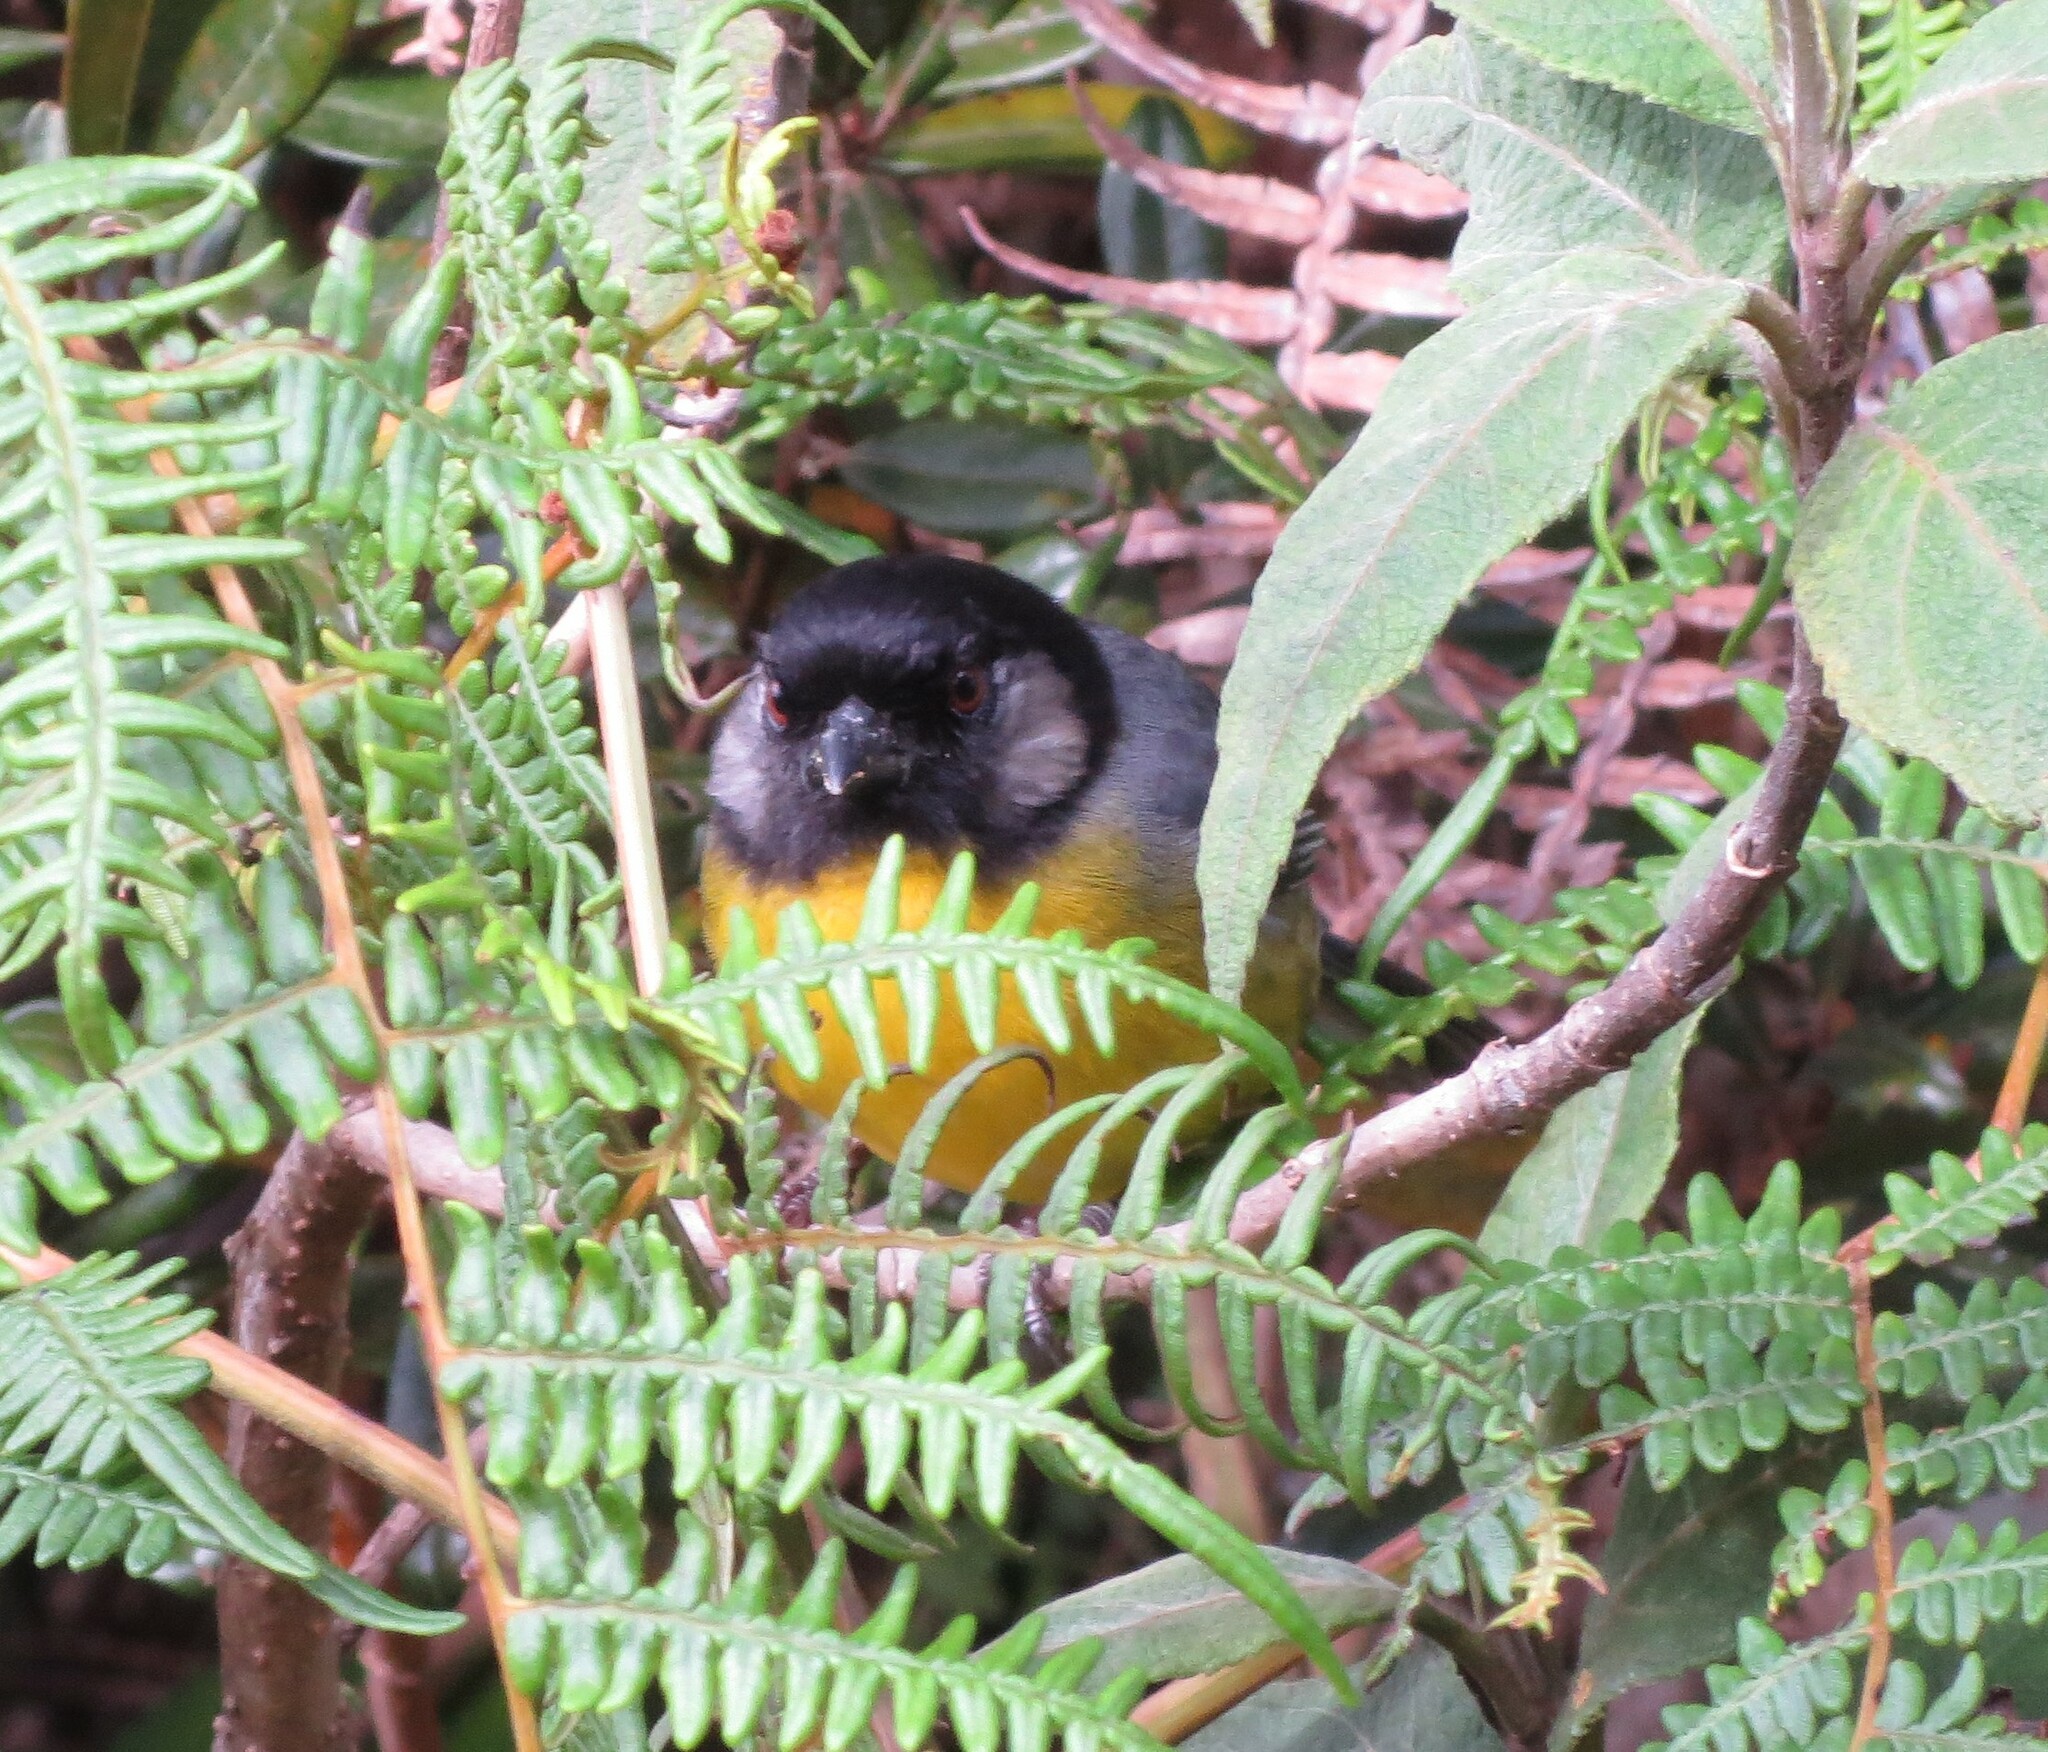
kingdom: Animalia
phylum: Chordata
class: Aves
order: Passeriformes
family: Passerellidae
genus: Atlapetes
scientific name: Atlapetes melanocephalus
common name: Santa marta brush-finch
